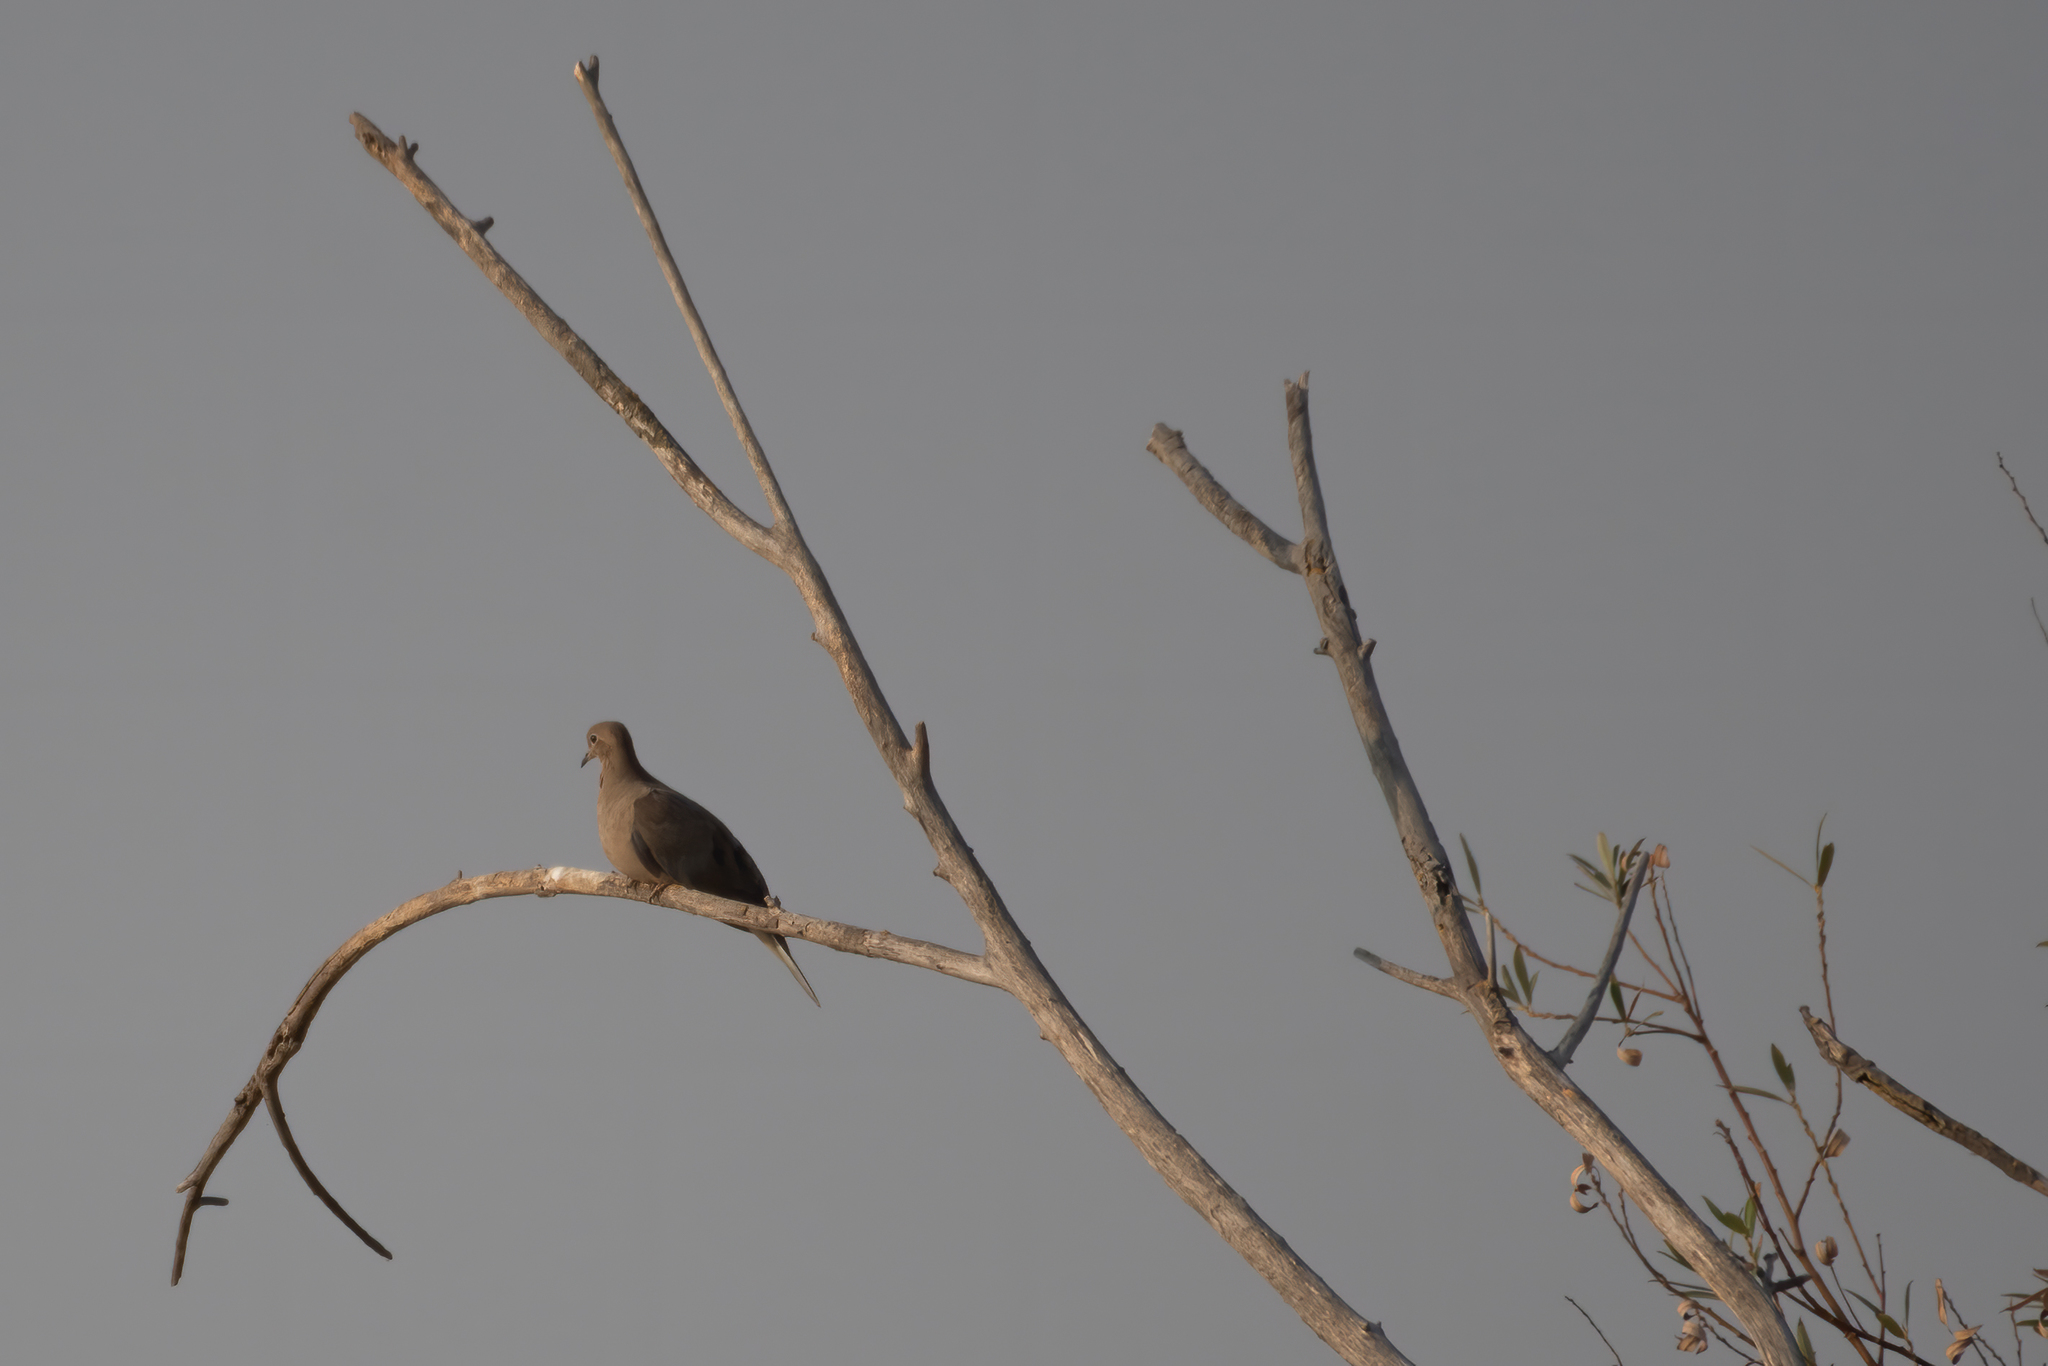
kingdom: Animalia
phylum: Chordata
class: Aves
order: Columbiformes
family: Columbidae
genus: Zenaida
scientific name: Zenaida macroura
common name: Mourning dove
